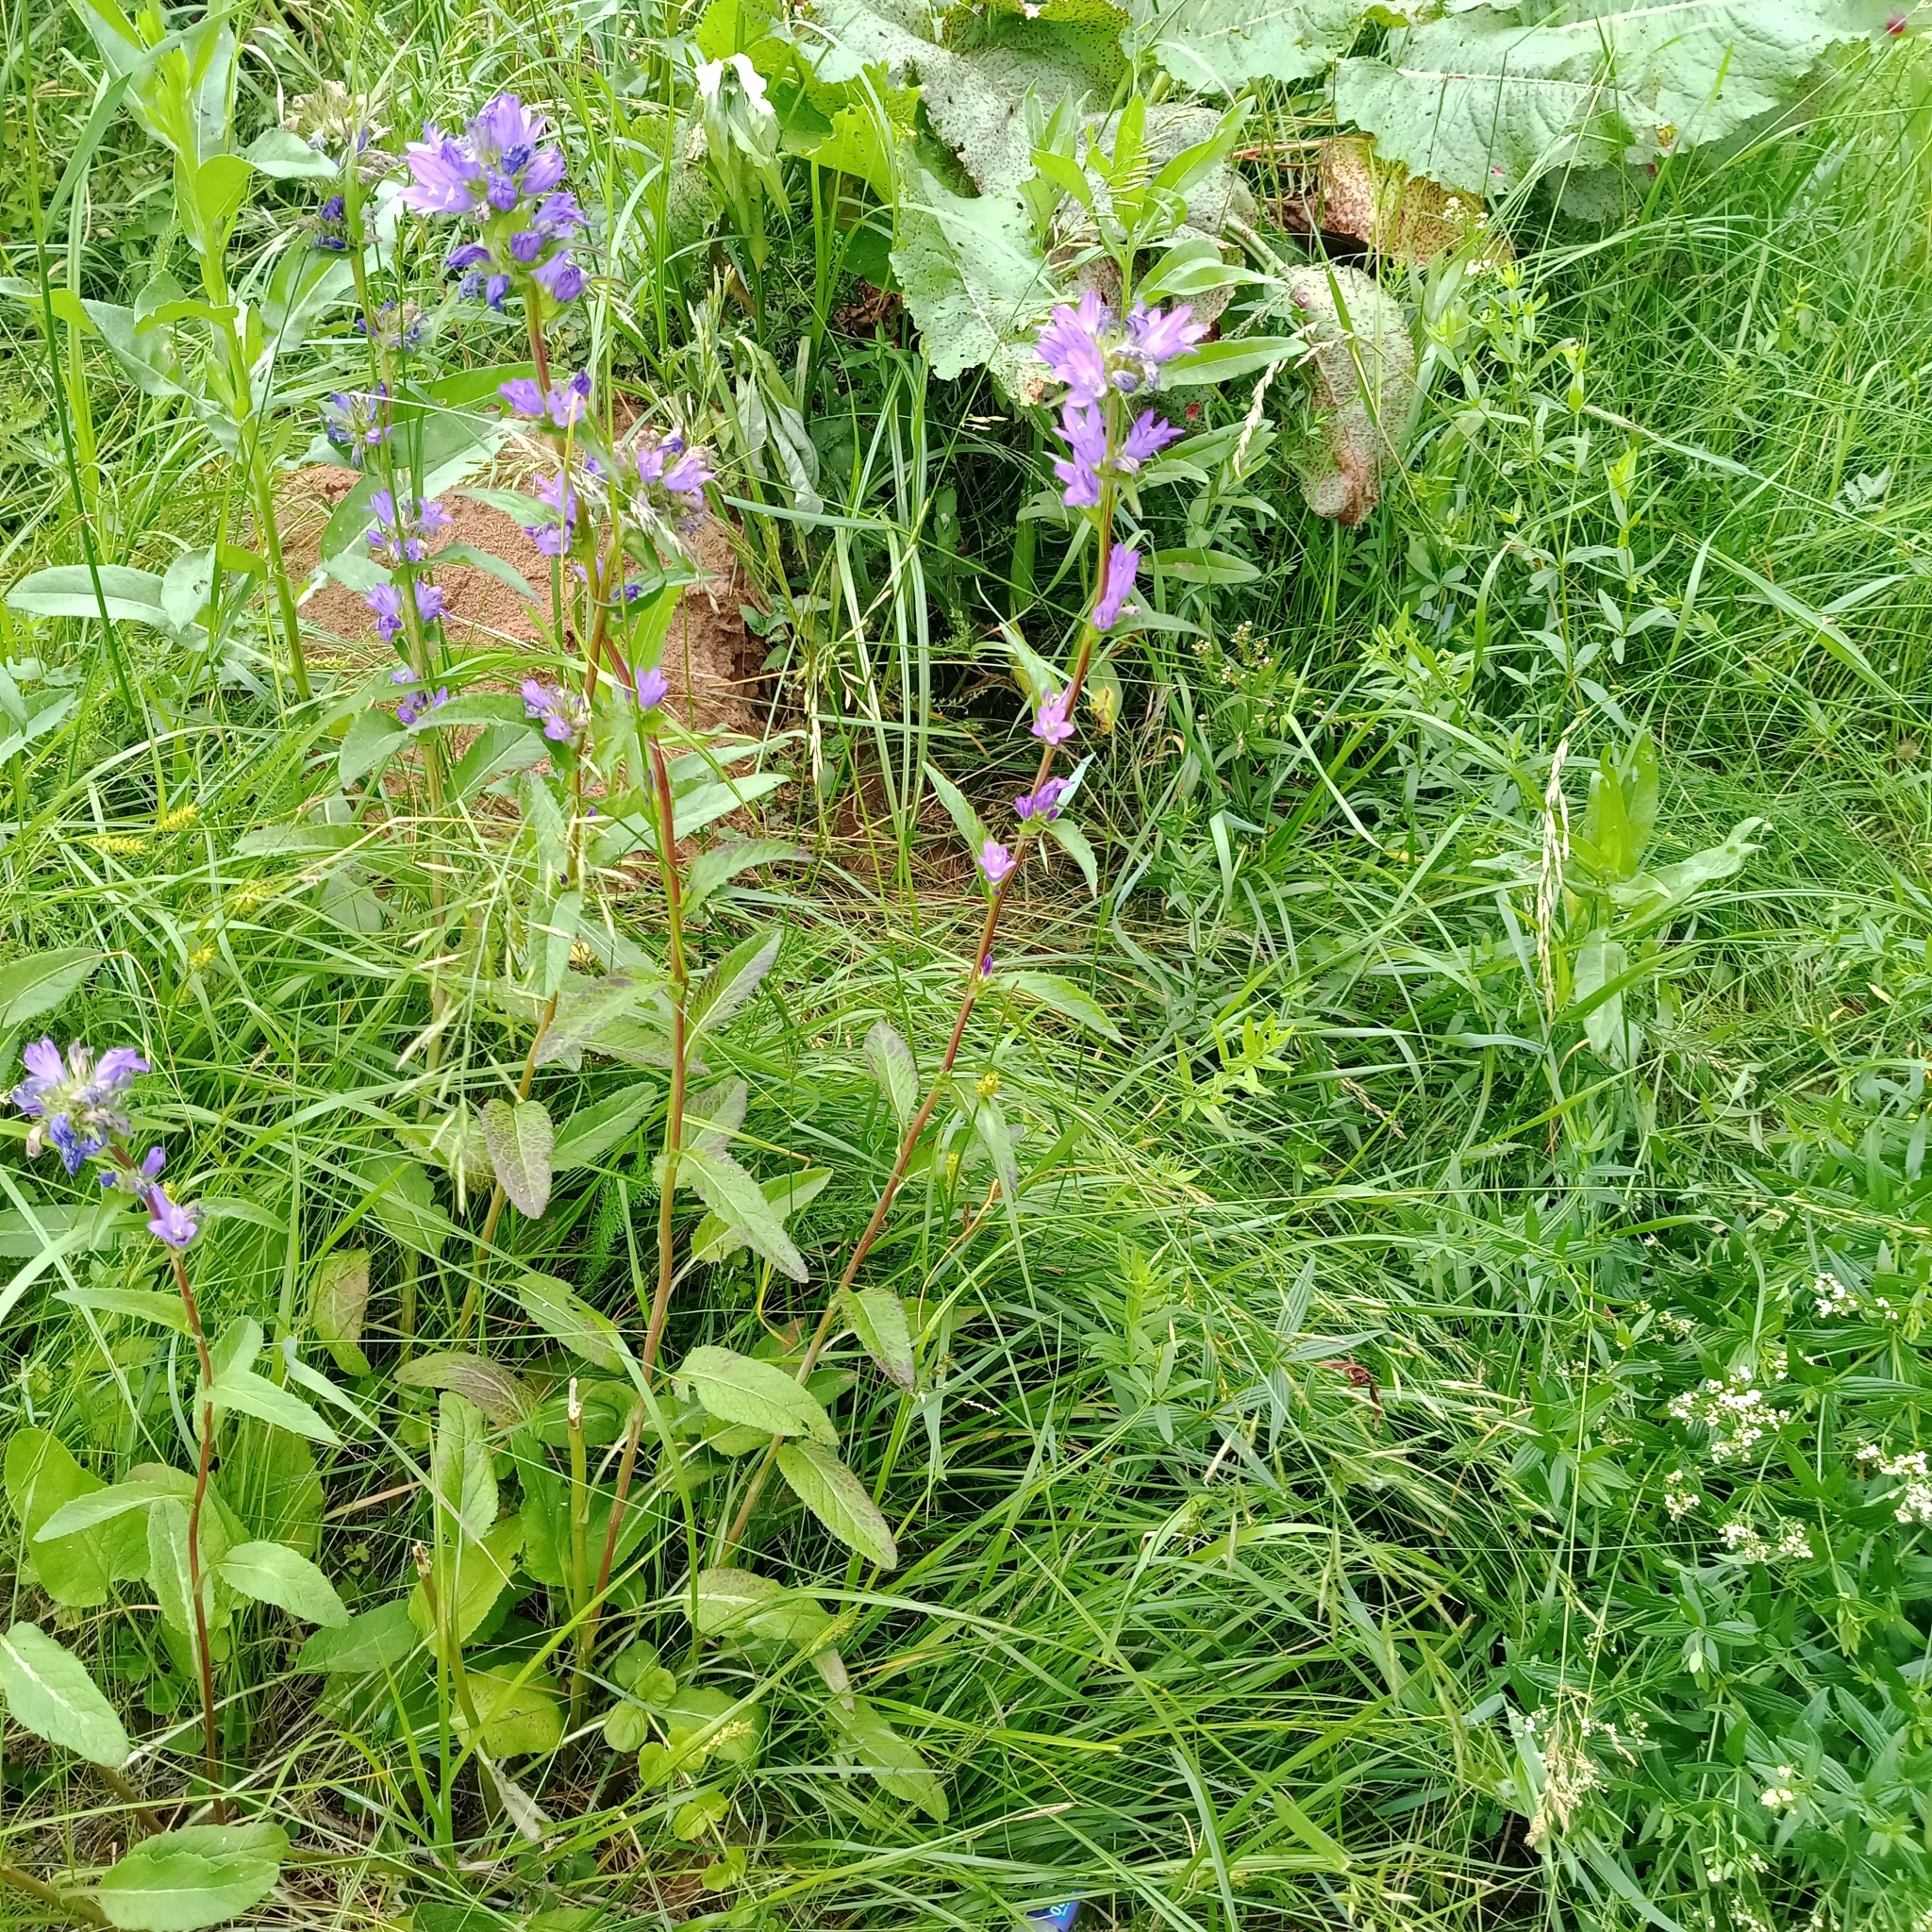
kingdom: Plantae
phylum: Tracheophyta
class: Magnoliopsida
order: Asterales
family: Campanulaceae
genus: Campanula
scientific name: Campanula glomerata
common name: Clustered bellflower
